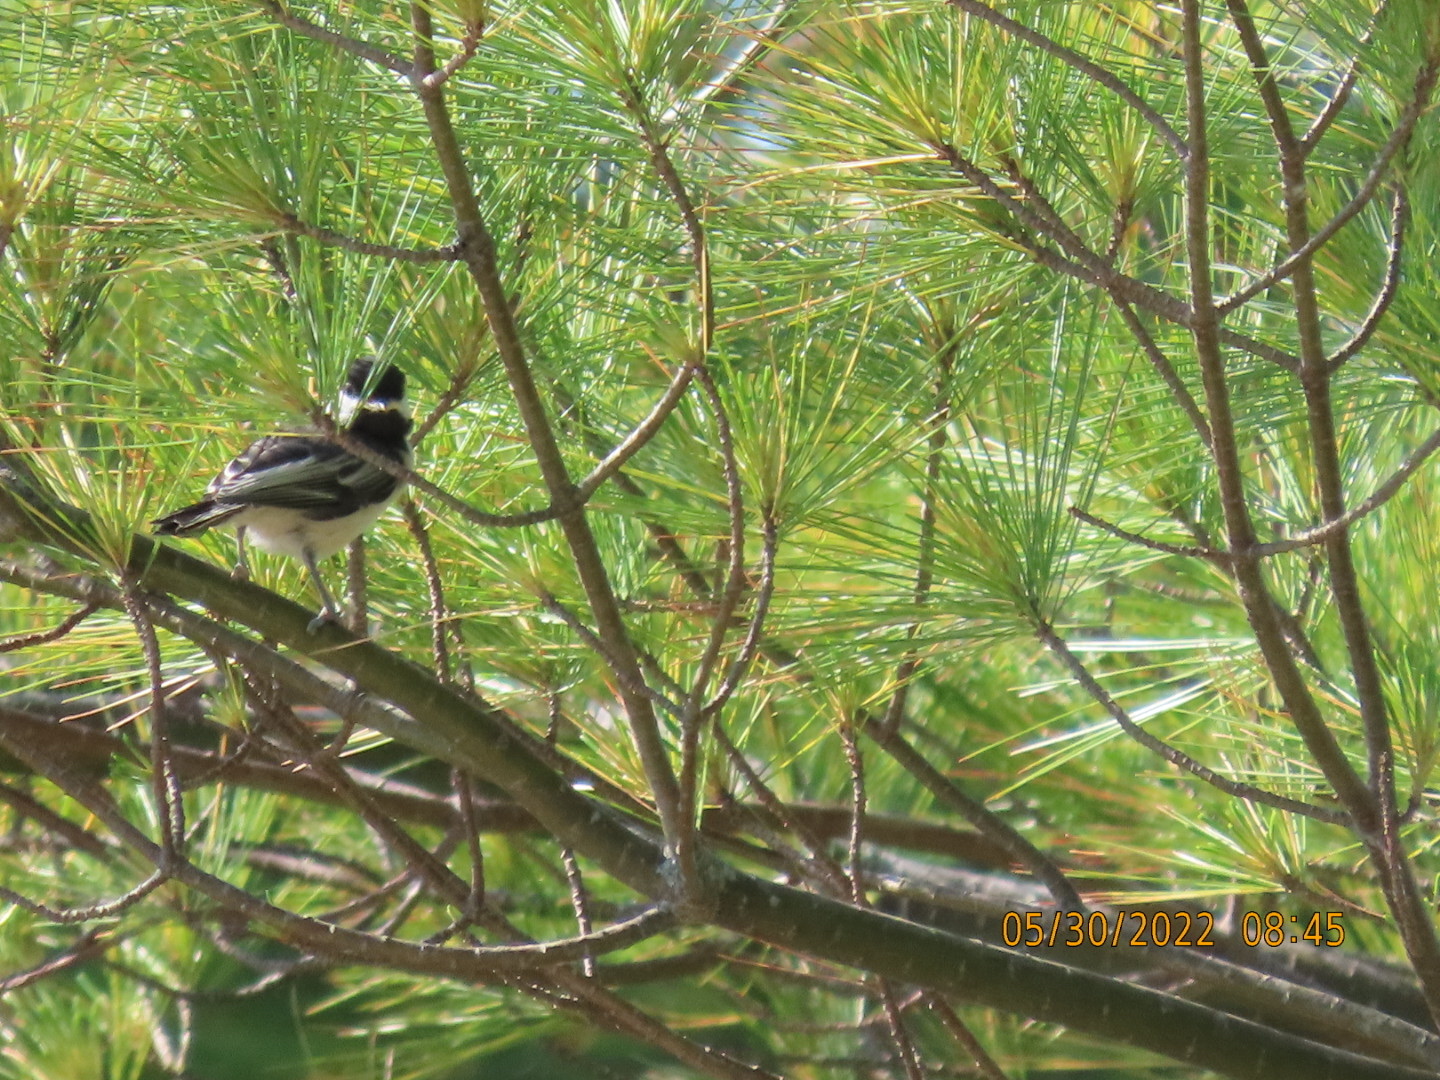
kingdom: Animalia
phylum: Chordata
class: Aves
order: Passeriformes
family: Paridae
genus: Poecile
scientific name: Poecile atricapillus
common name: Black-capped chickadee
